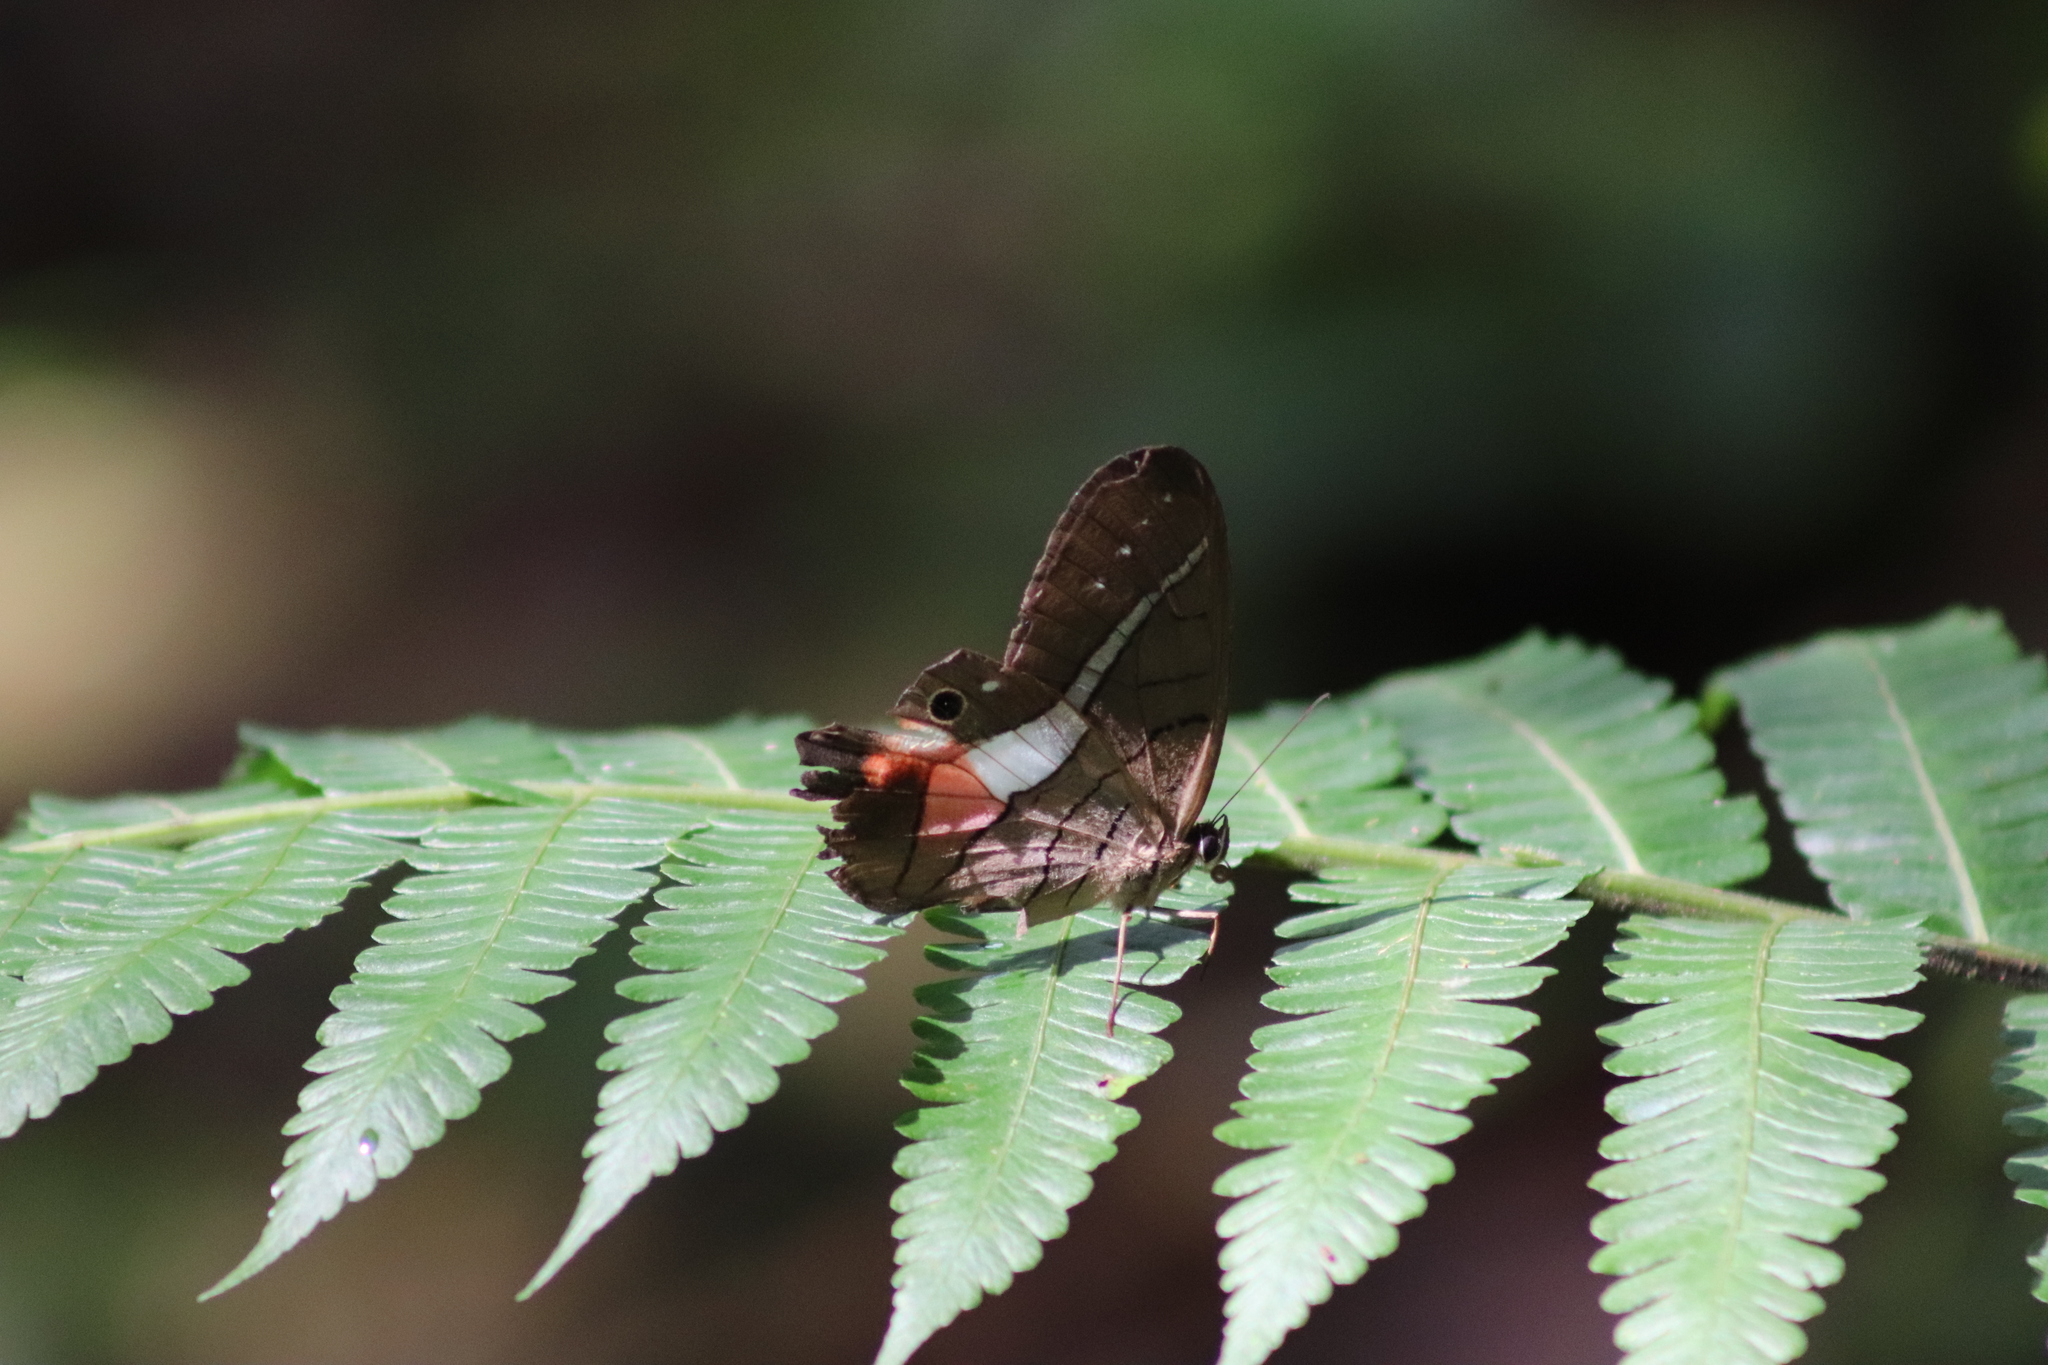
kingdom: Animalia
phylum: Arthropoda
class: Insecta
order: Lepidoptera
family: Nymphalidae
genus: Pierella
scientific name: Pierella helvina
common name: Red-washed satyr
